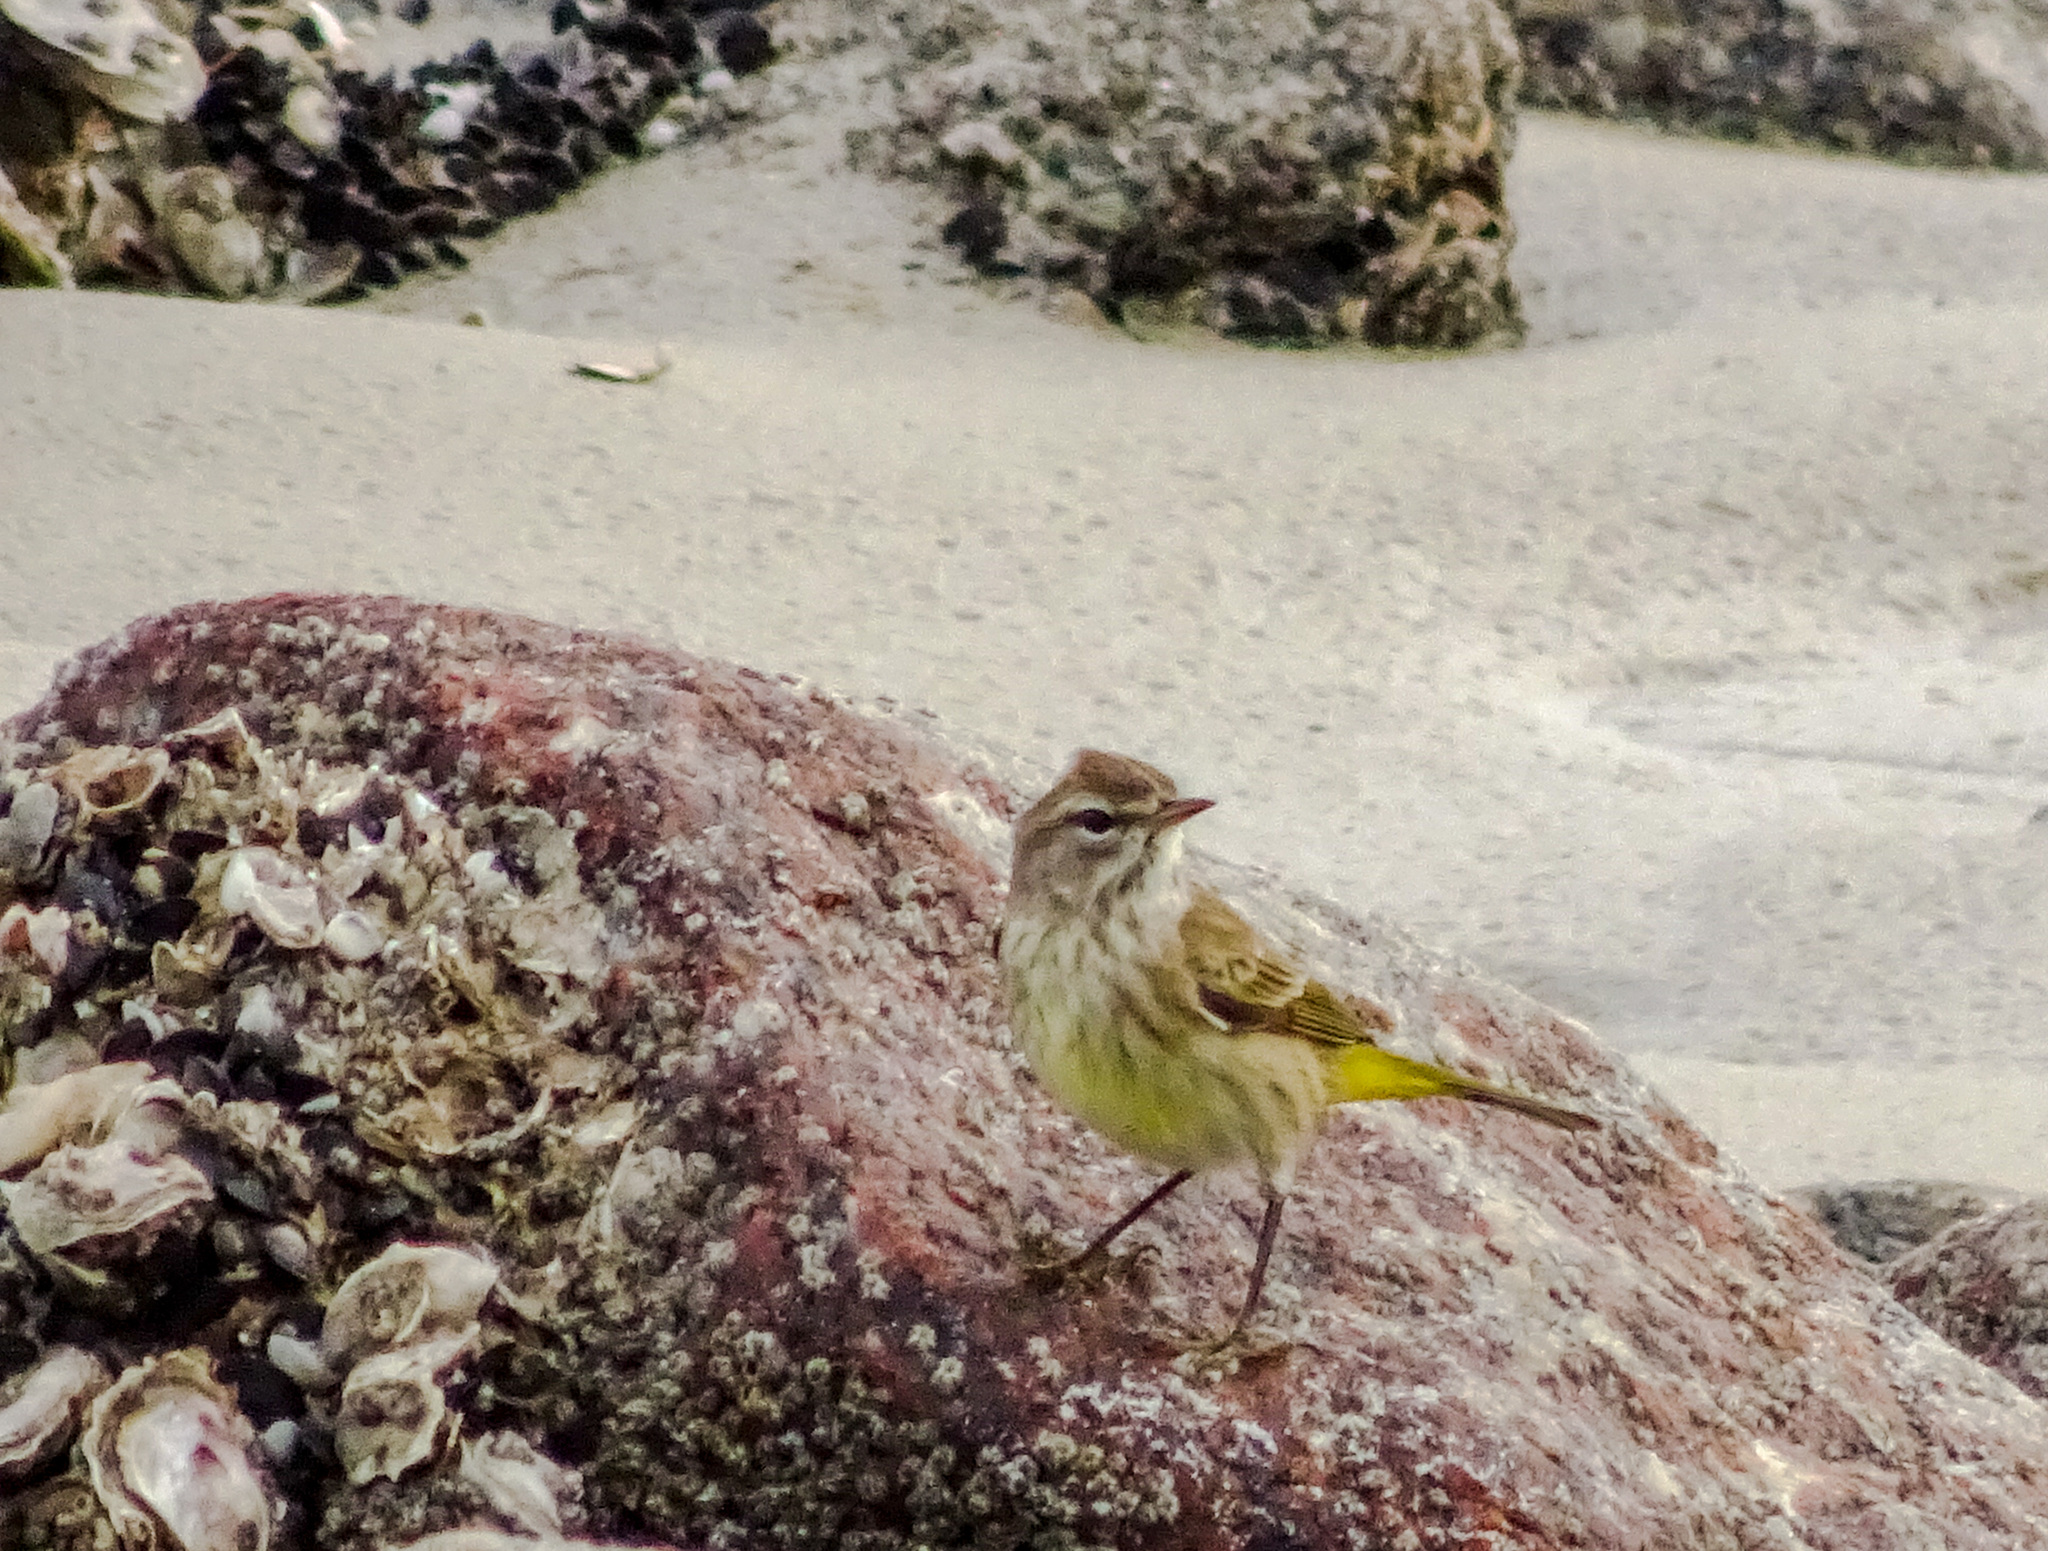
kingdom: Animalia
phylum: Chordata
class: Aves
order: Passeriformes
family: Parulidae
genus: Setophaga
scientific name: Setophaga palmarum
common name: Palm warbler
